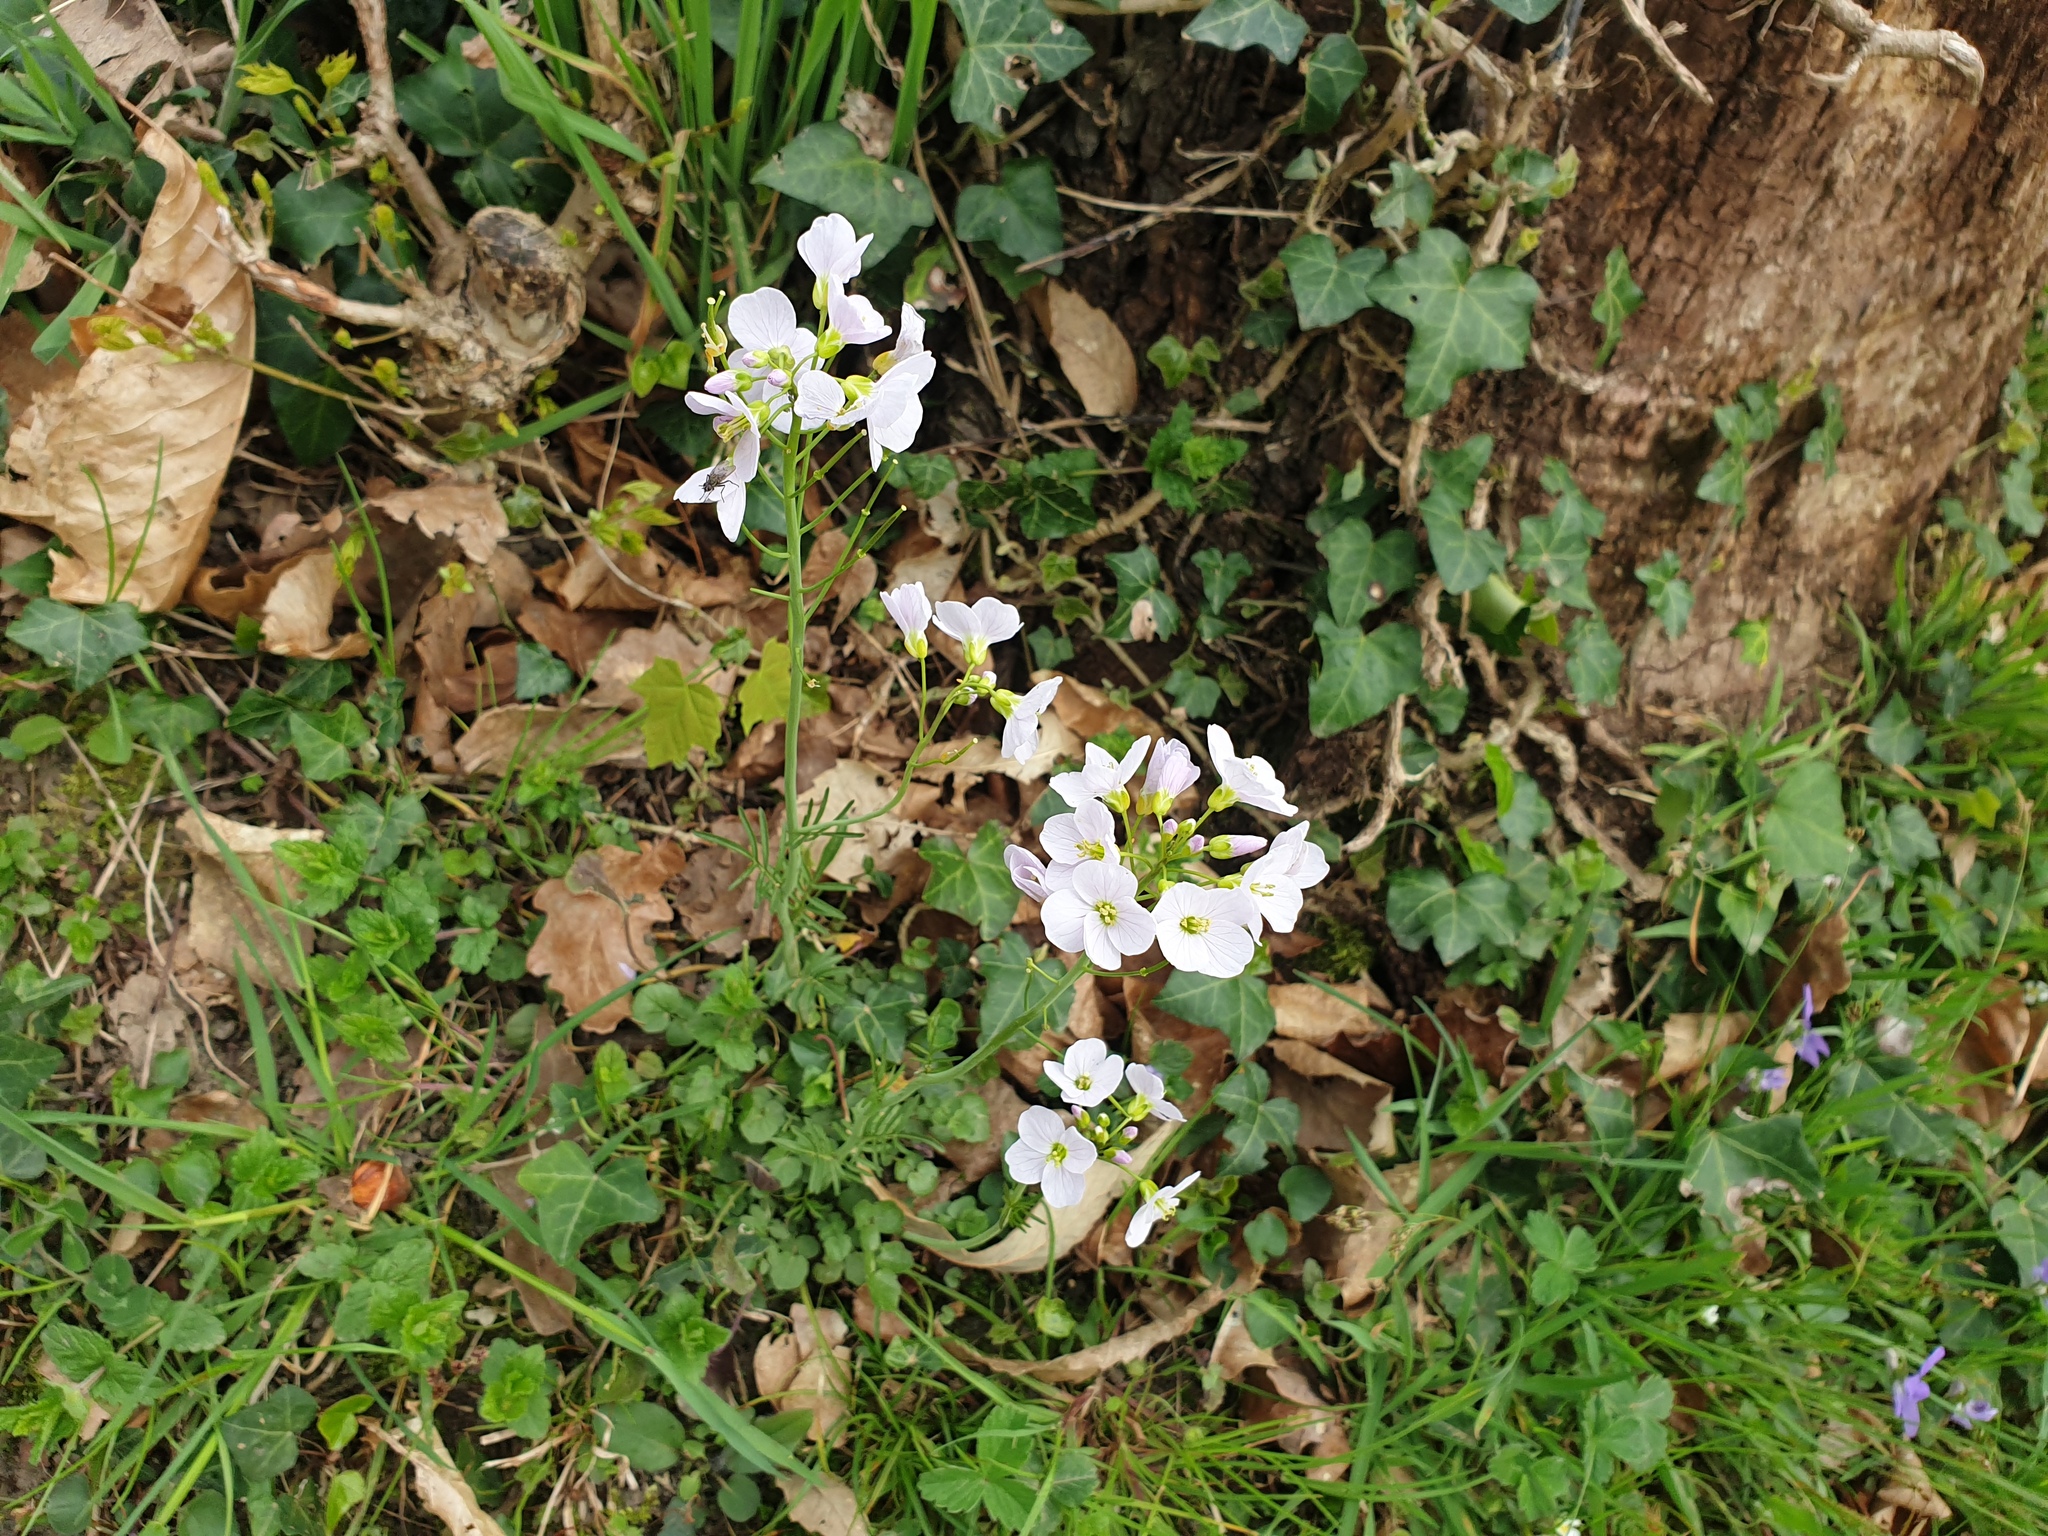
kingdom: Plantae
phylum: Tracheophyta
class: Magnoliopsida
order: Brassicales
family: Brassicaceae
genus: Cardamine
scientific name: Cardamine pratensis
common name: Cuckoo flower
